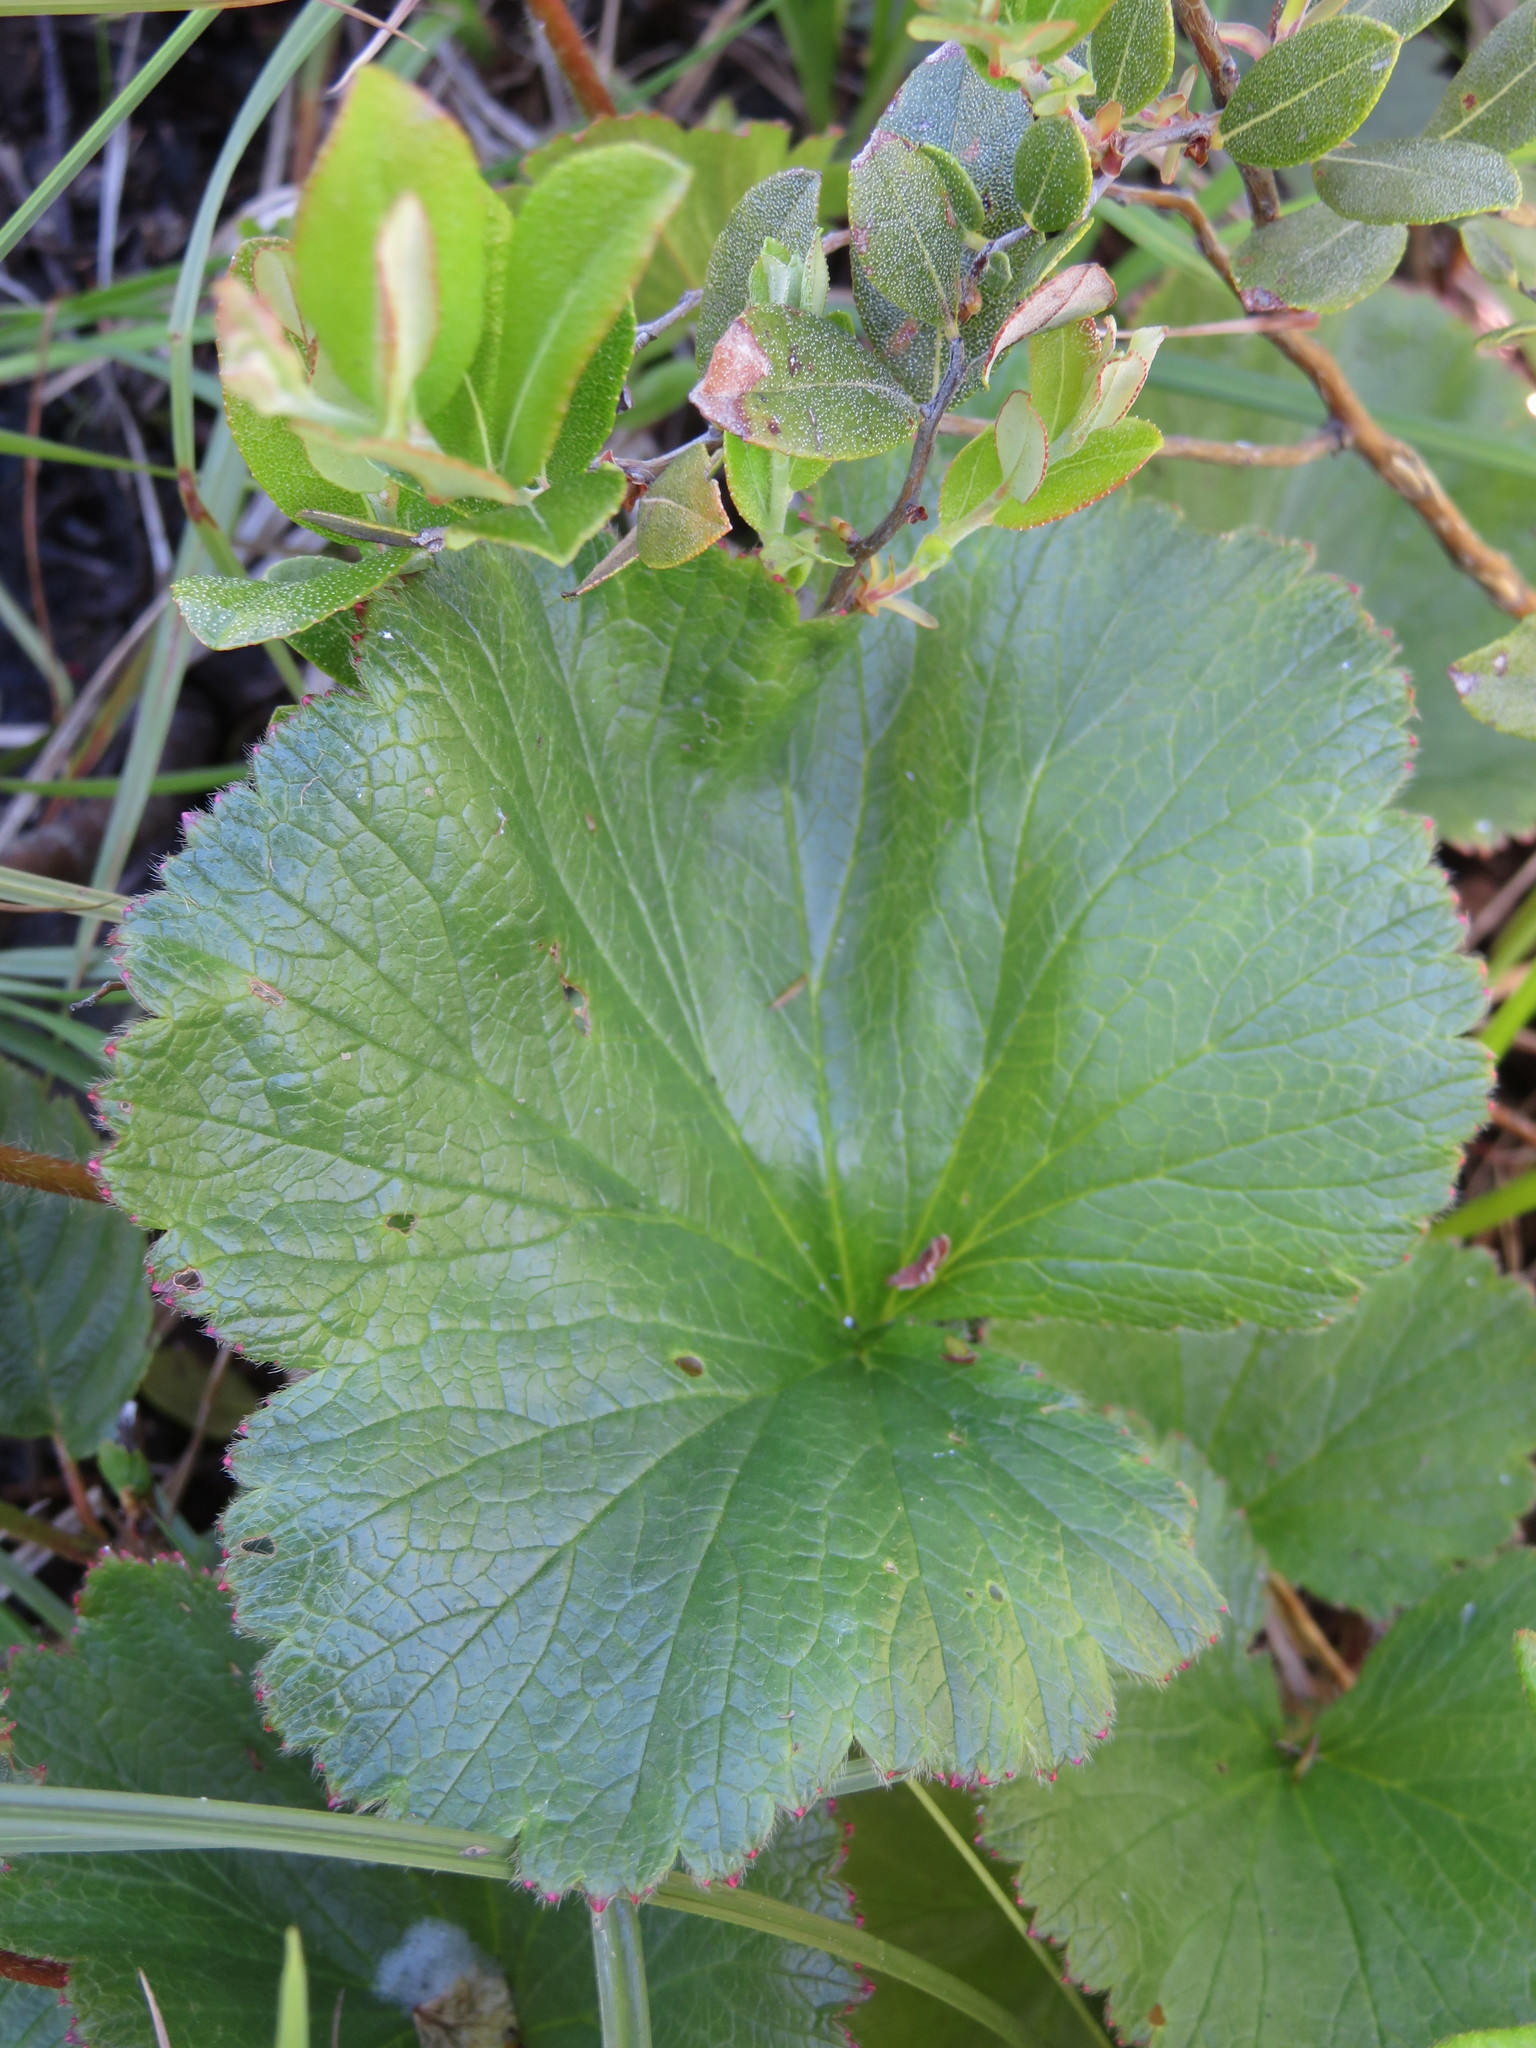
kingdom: Plantae
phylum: Tracheophyta
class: Magnoliopsida
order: Rosales
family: Rosaceae
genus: Geum
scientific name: Geum peckii
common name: Eastern mountain avens
